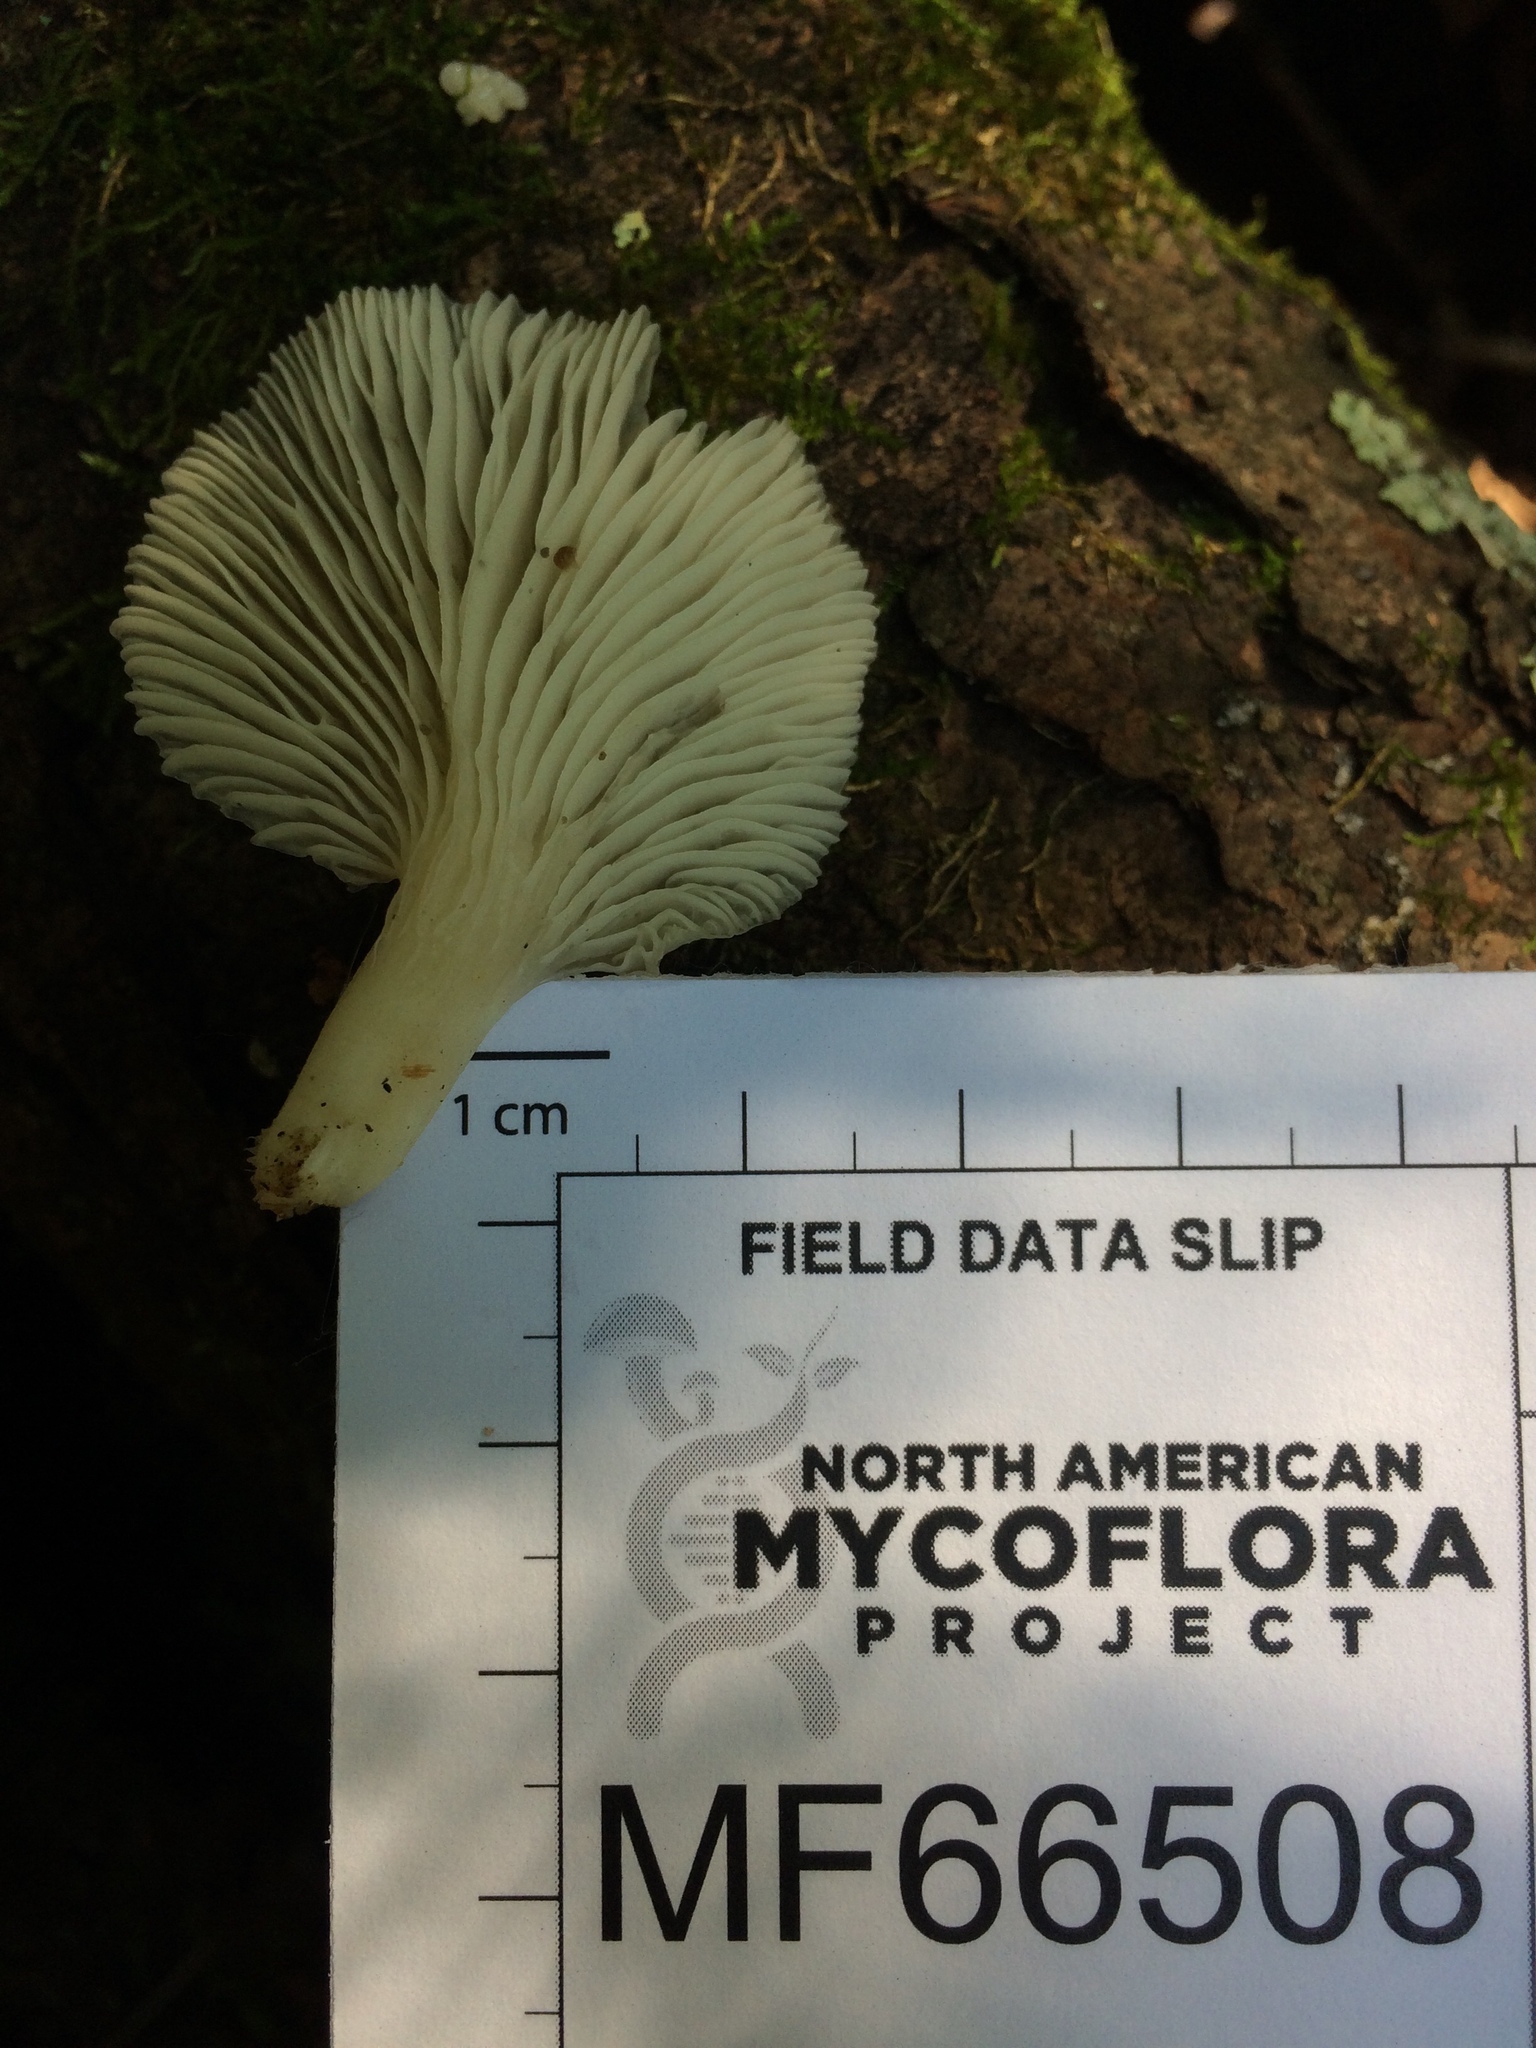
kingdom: Fungi
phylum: Basidiomycota
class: Agaricomycetes
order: Agaricales
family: Pleurotaceae
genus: Pleurotus
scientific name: Pleurotus pulmonarius
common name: Pale oyster
